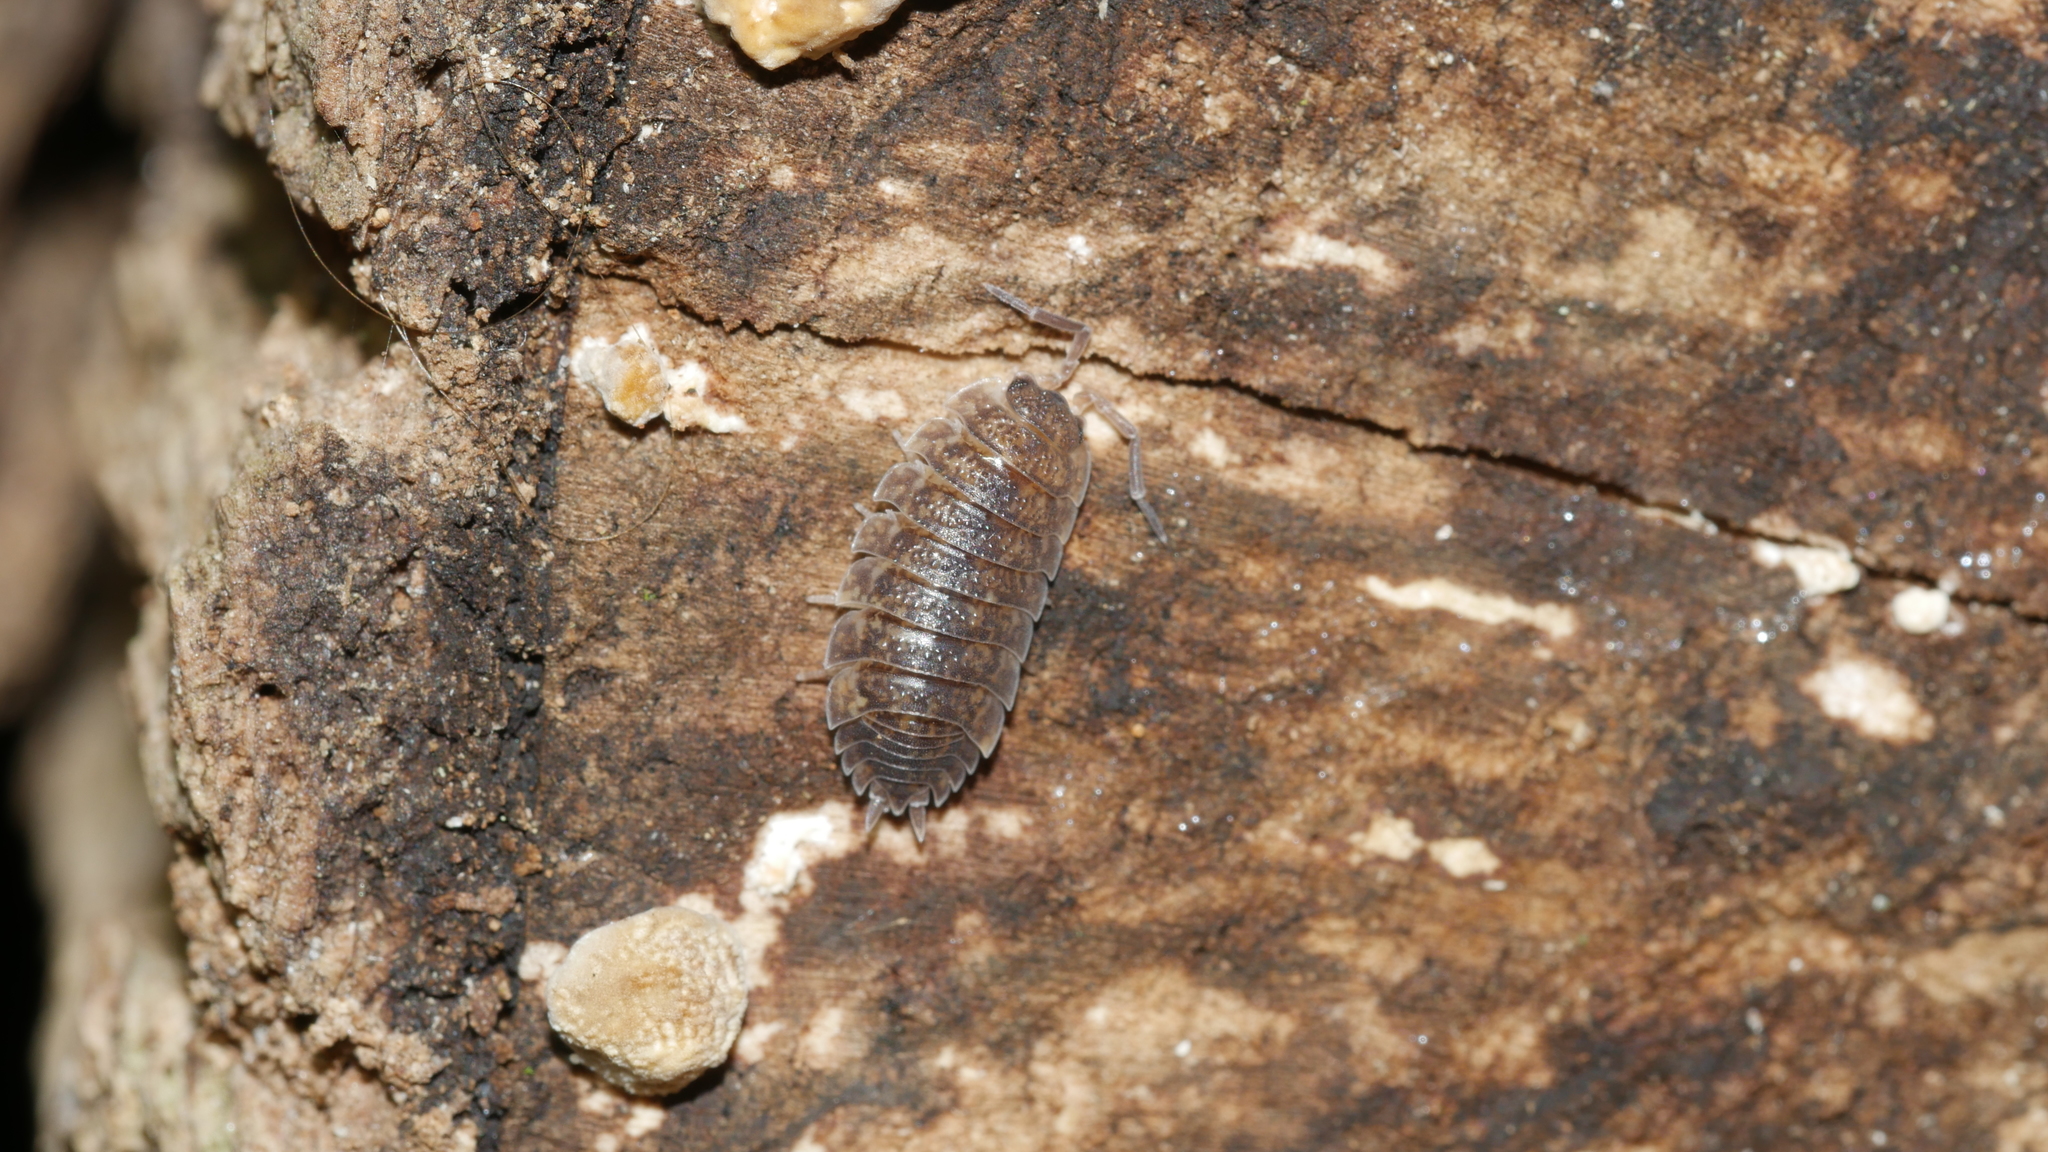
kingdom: Animalia
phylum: Arthropoda
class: Malacostraca
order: Isopoda
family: Porcellionidae
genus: Porcellio
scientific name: Porcellio scaber
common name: Common rough woodlouse
